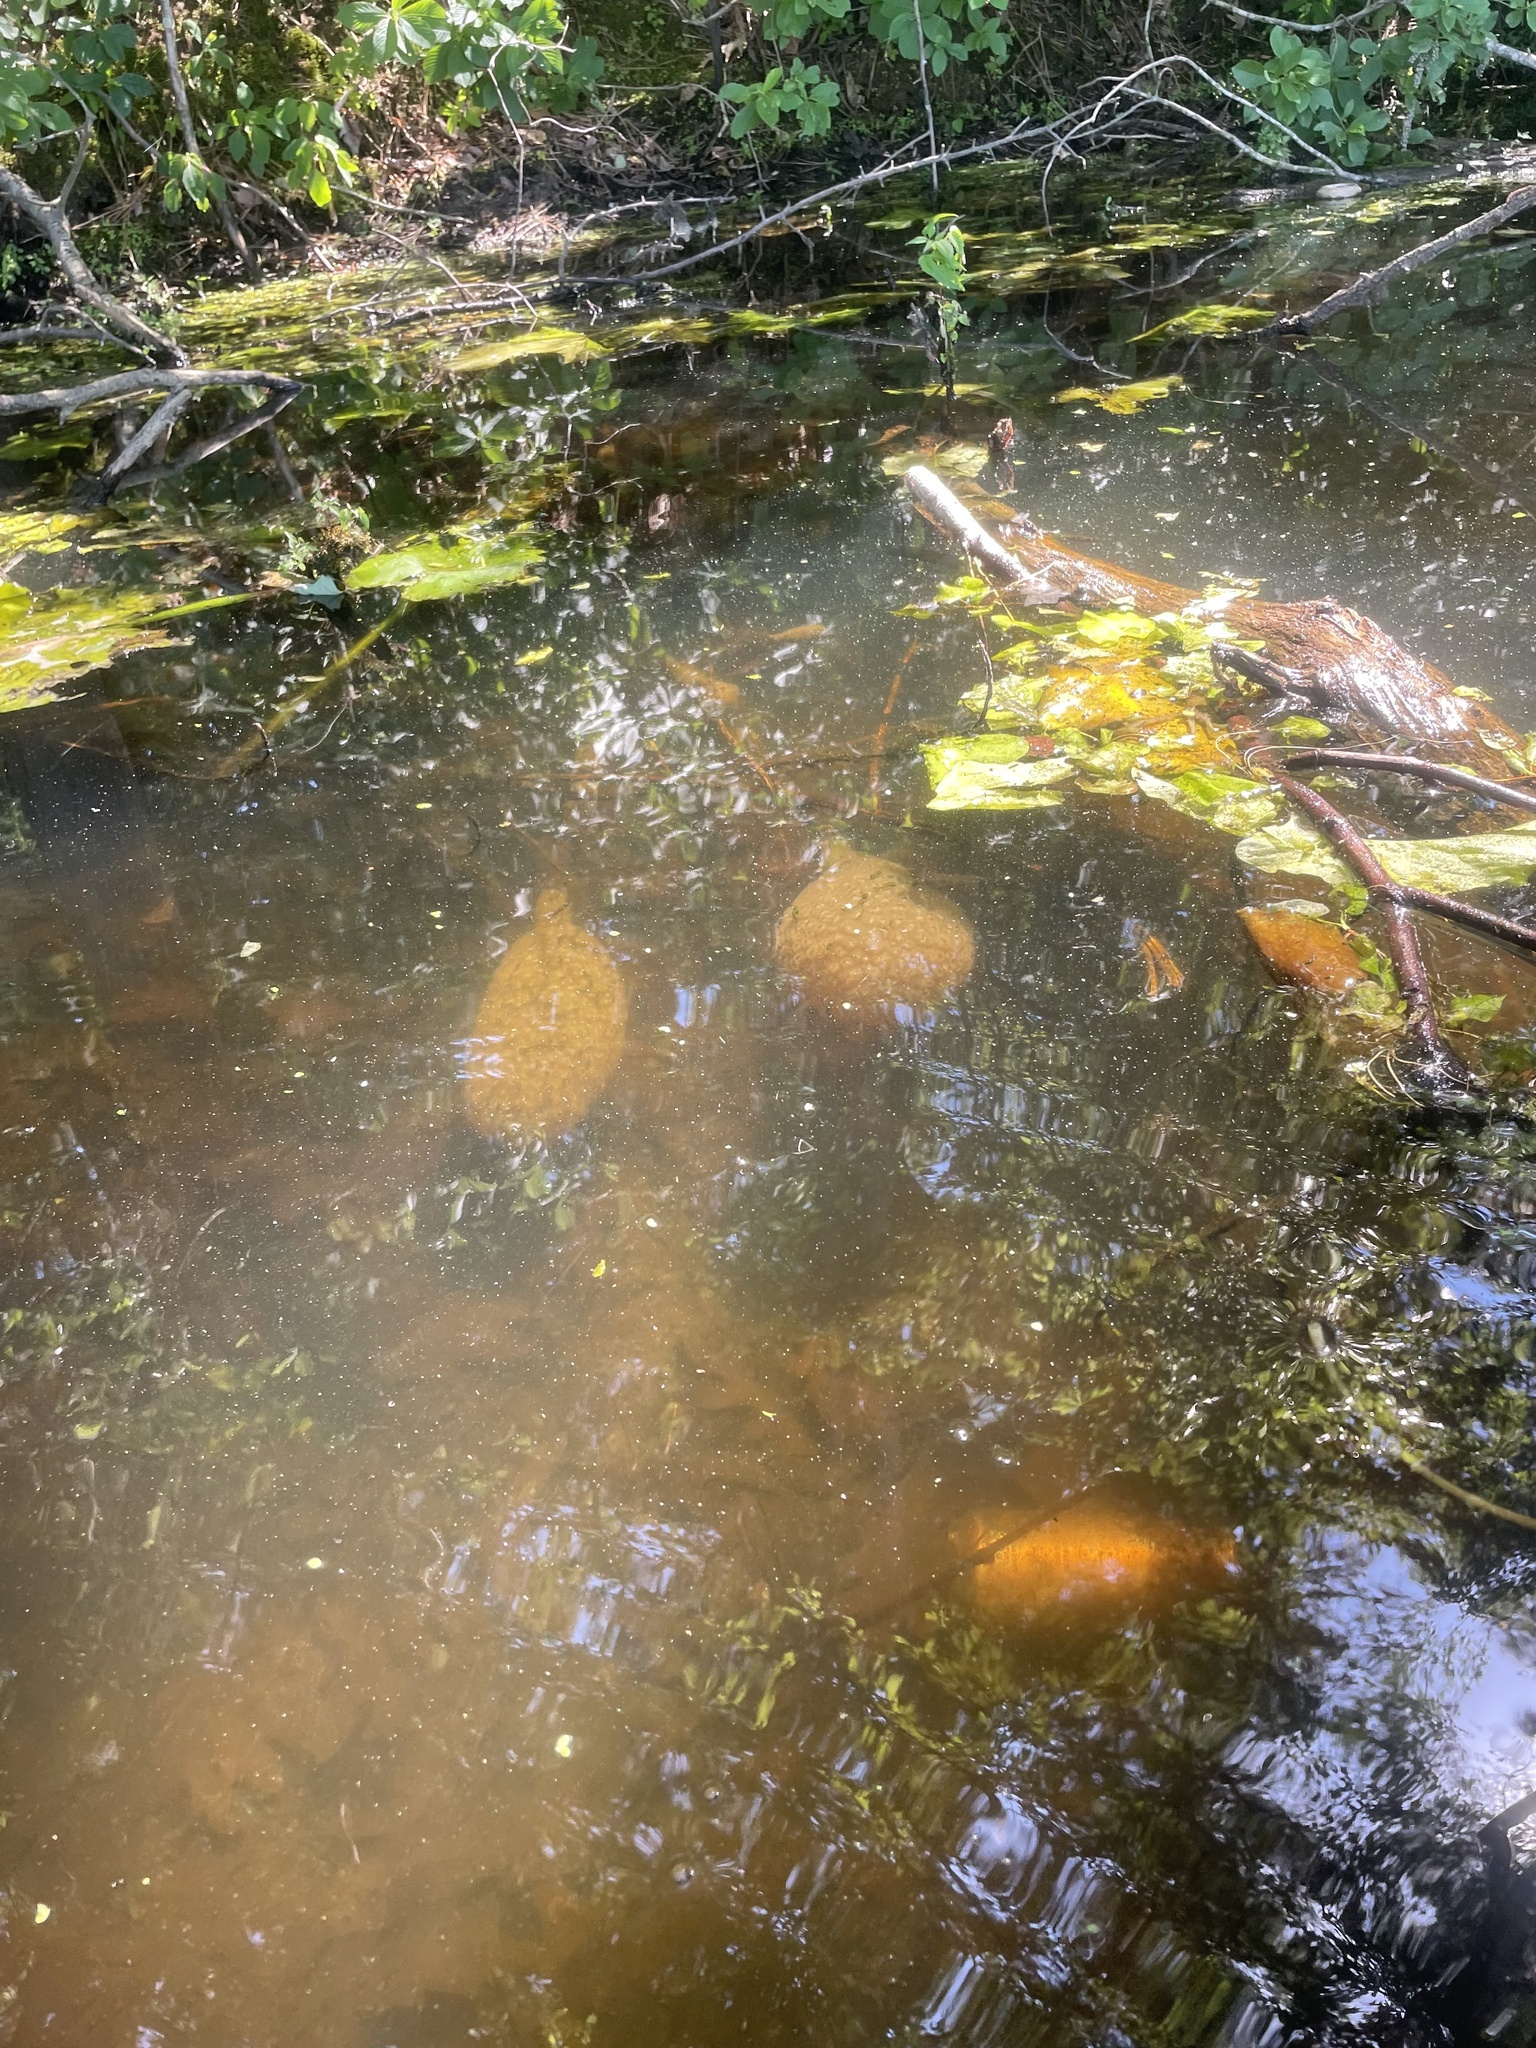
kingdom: Animalia
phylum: Bryozoa
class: Phylactolaemata
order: Plumatellida
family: Pectinatellidae
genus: Pectinatella
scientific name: Pectinatella magnifica
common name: Magnificent bryozoan
